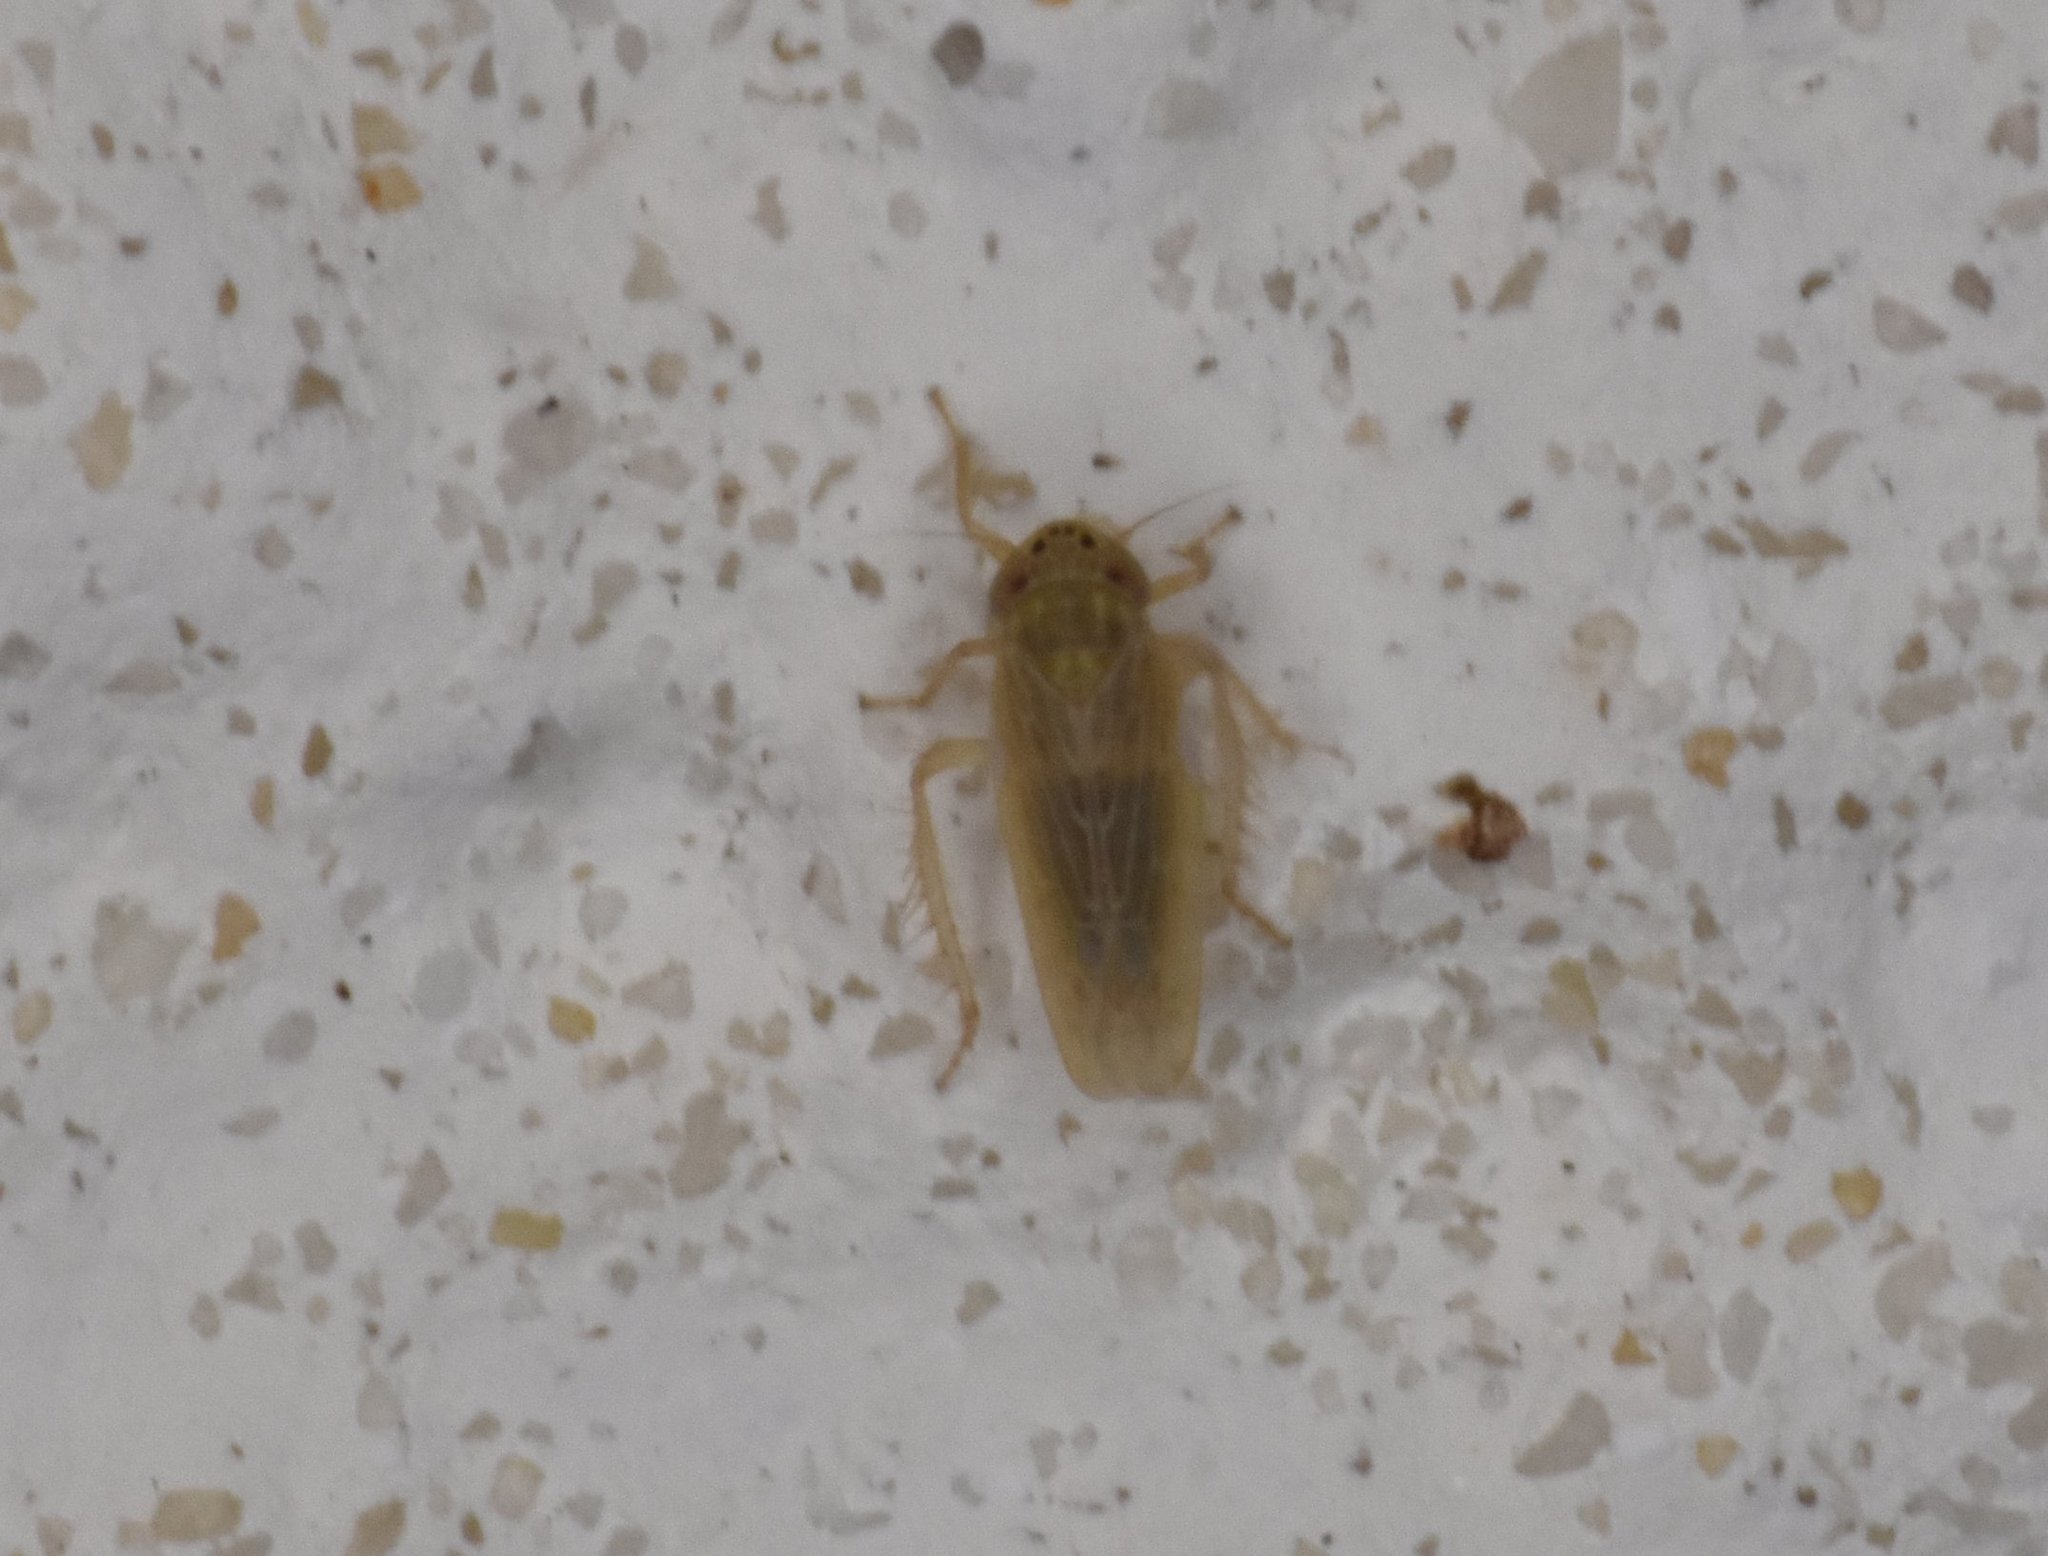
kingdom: Animalia
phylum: Arthropoda
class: Insecta
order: Hemiptera
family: Cicadellidae
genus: Graminella
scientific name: Graminella sonora
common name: Lesser lawn leafhopper
